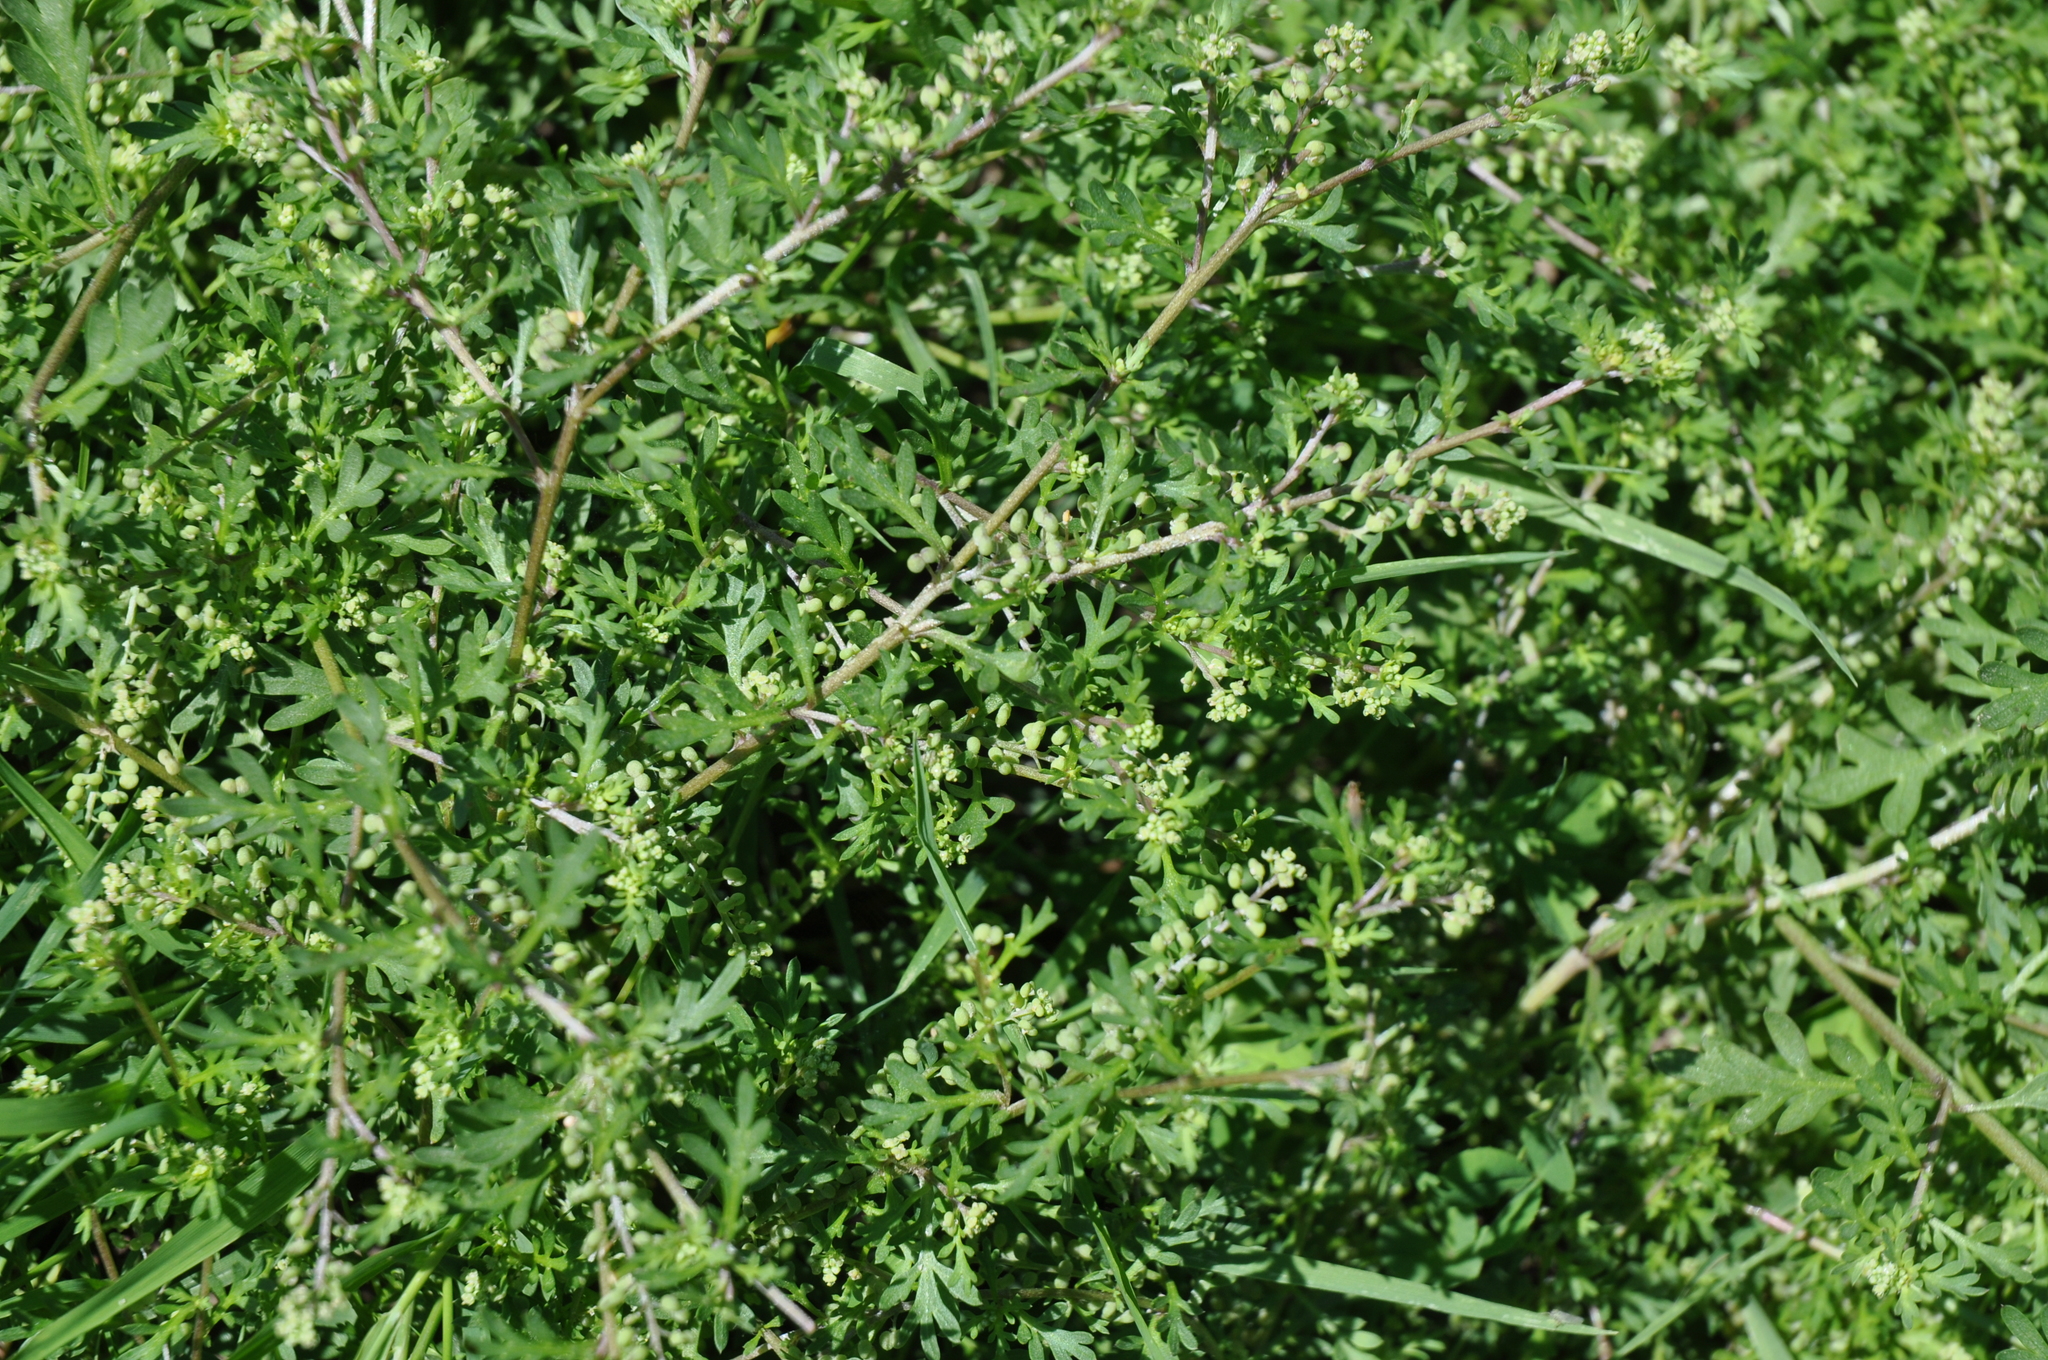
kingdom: Plantae
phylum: Tracheophyta
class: Magnoliopsida
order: Brassicales
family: Brassicaceae
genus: Lepidium
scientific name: Lepidium didymum
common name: Lesser swinecress
